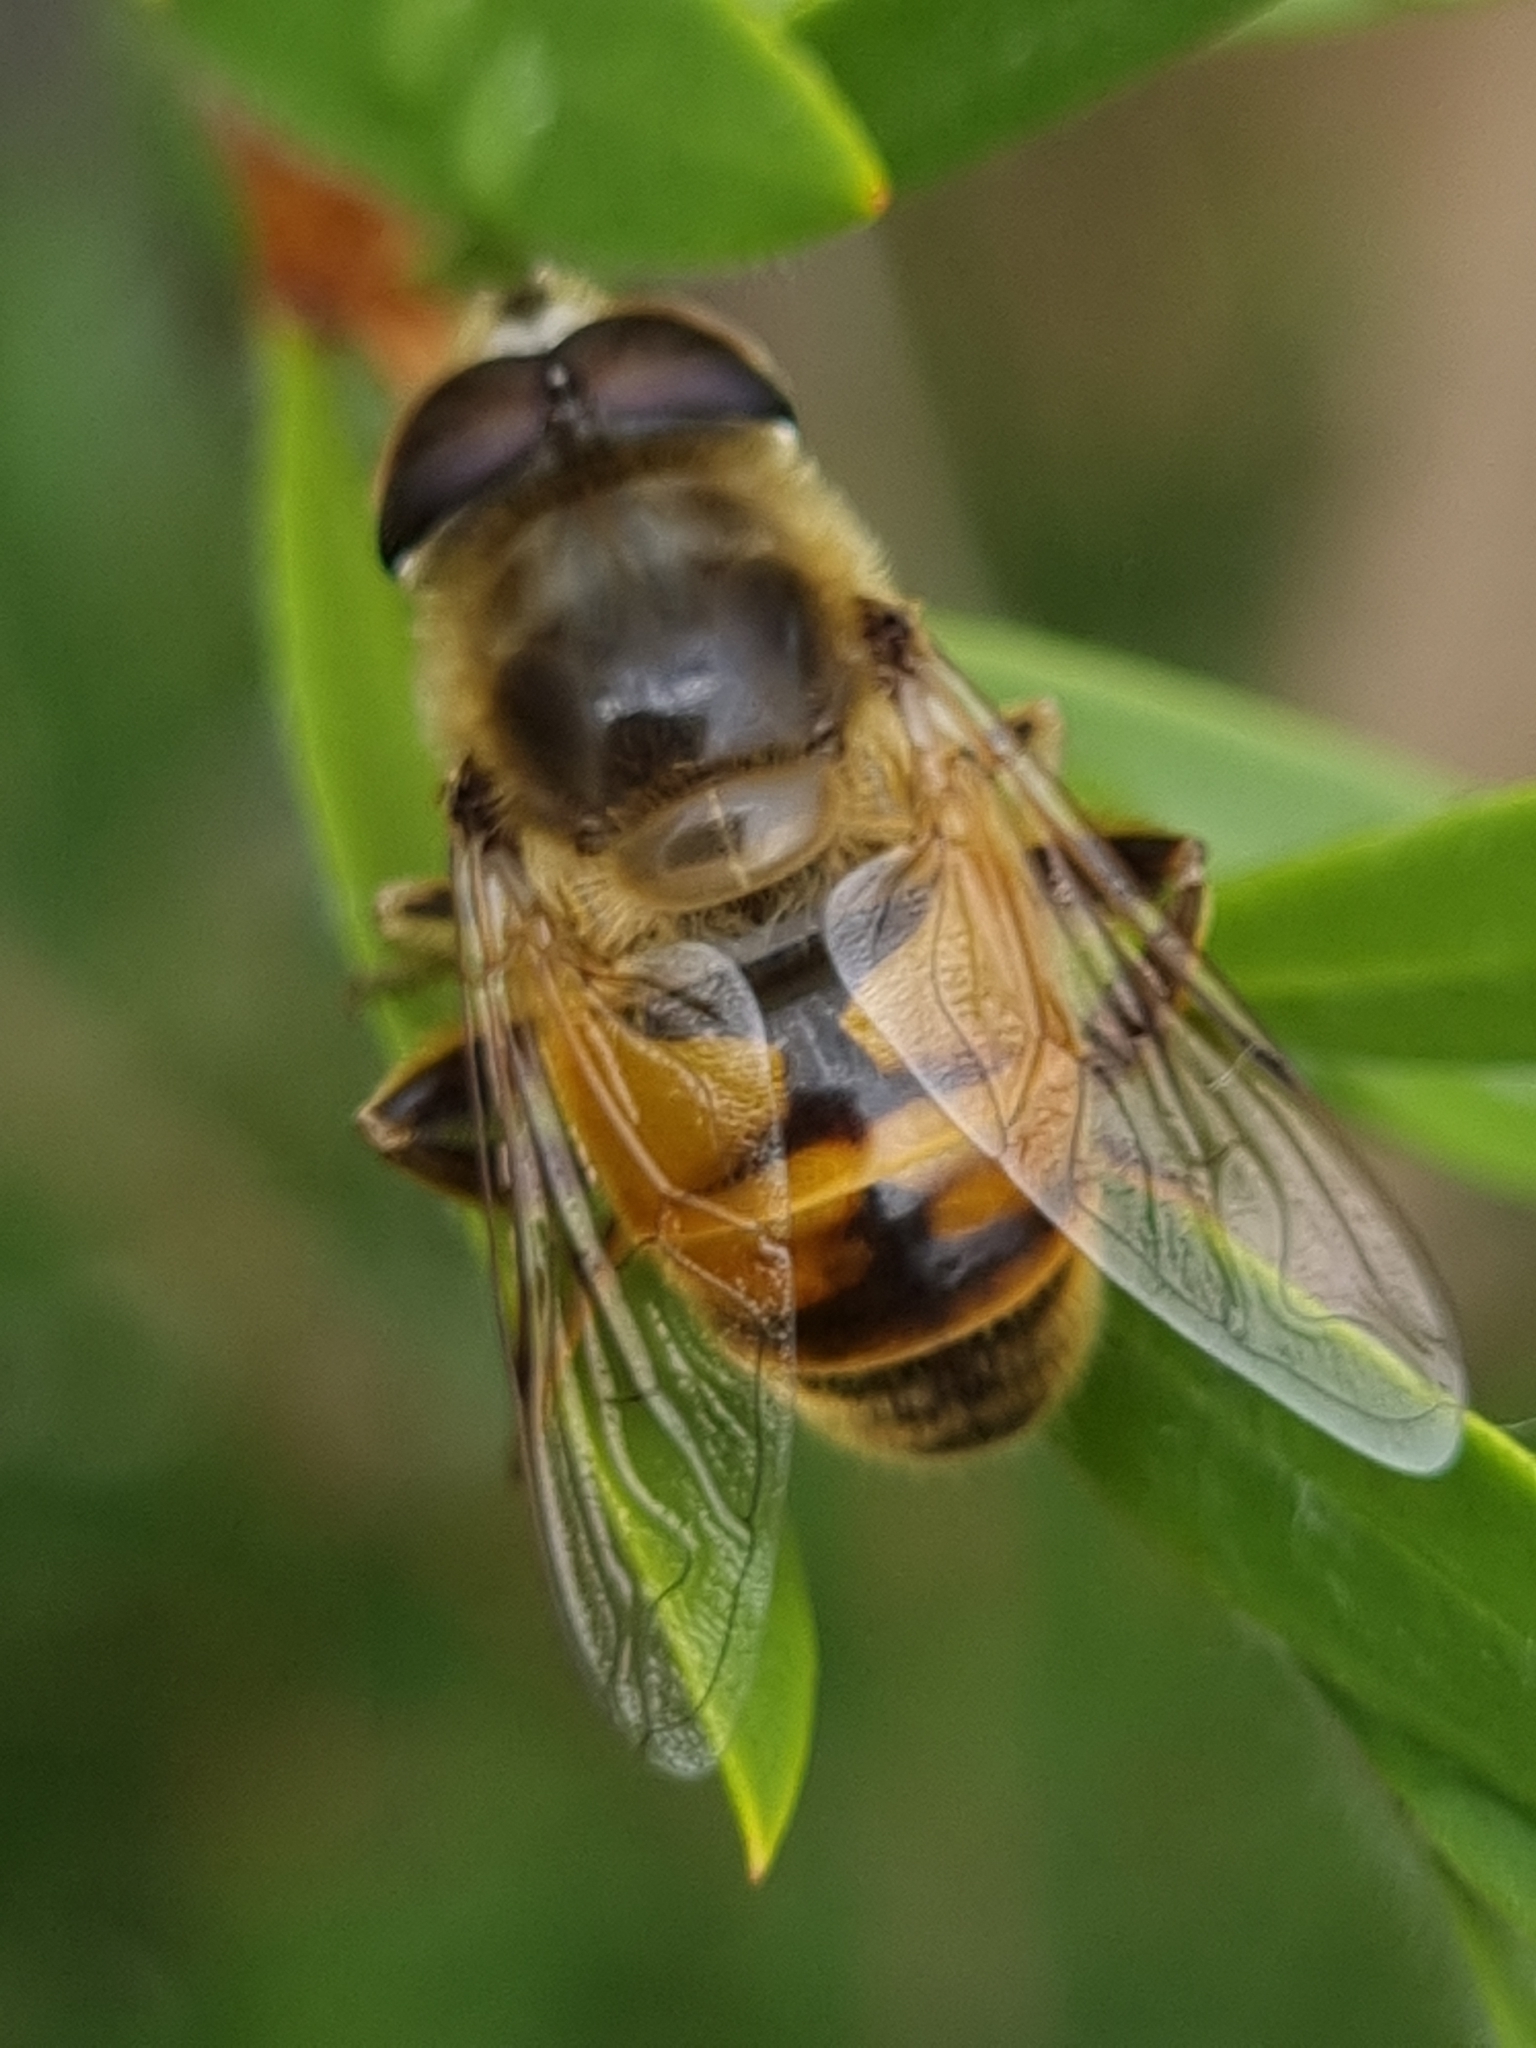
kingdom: Animalia
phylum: Arthropoda
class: Insecta
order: Diptera
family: Syrphidae
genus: Eristalis
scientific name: Eristalis tenax
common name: Drone fly
